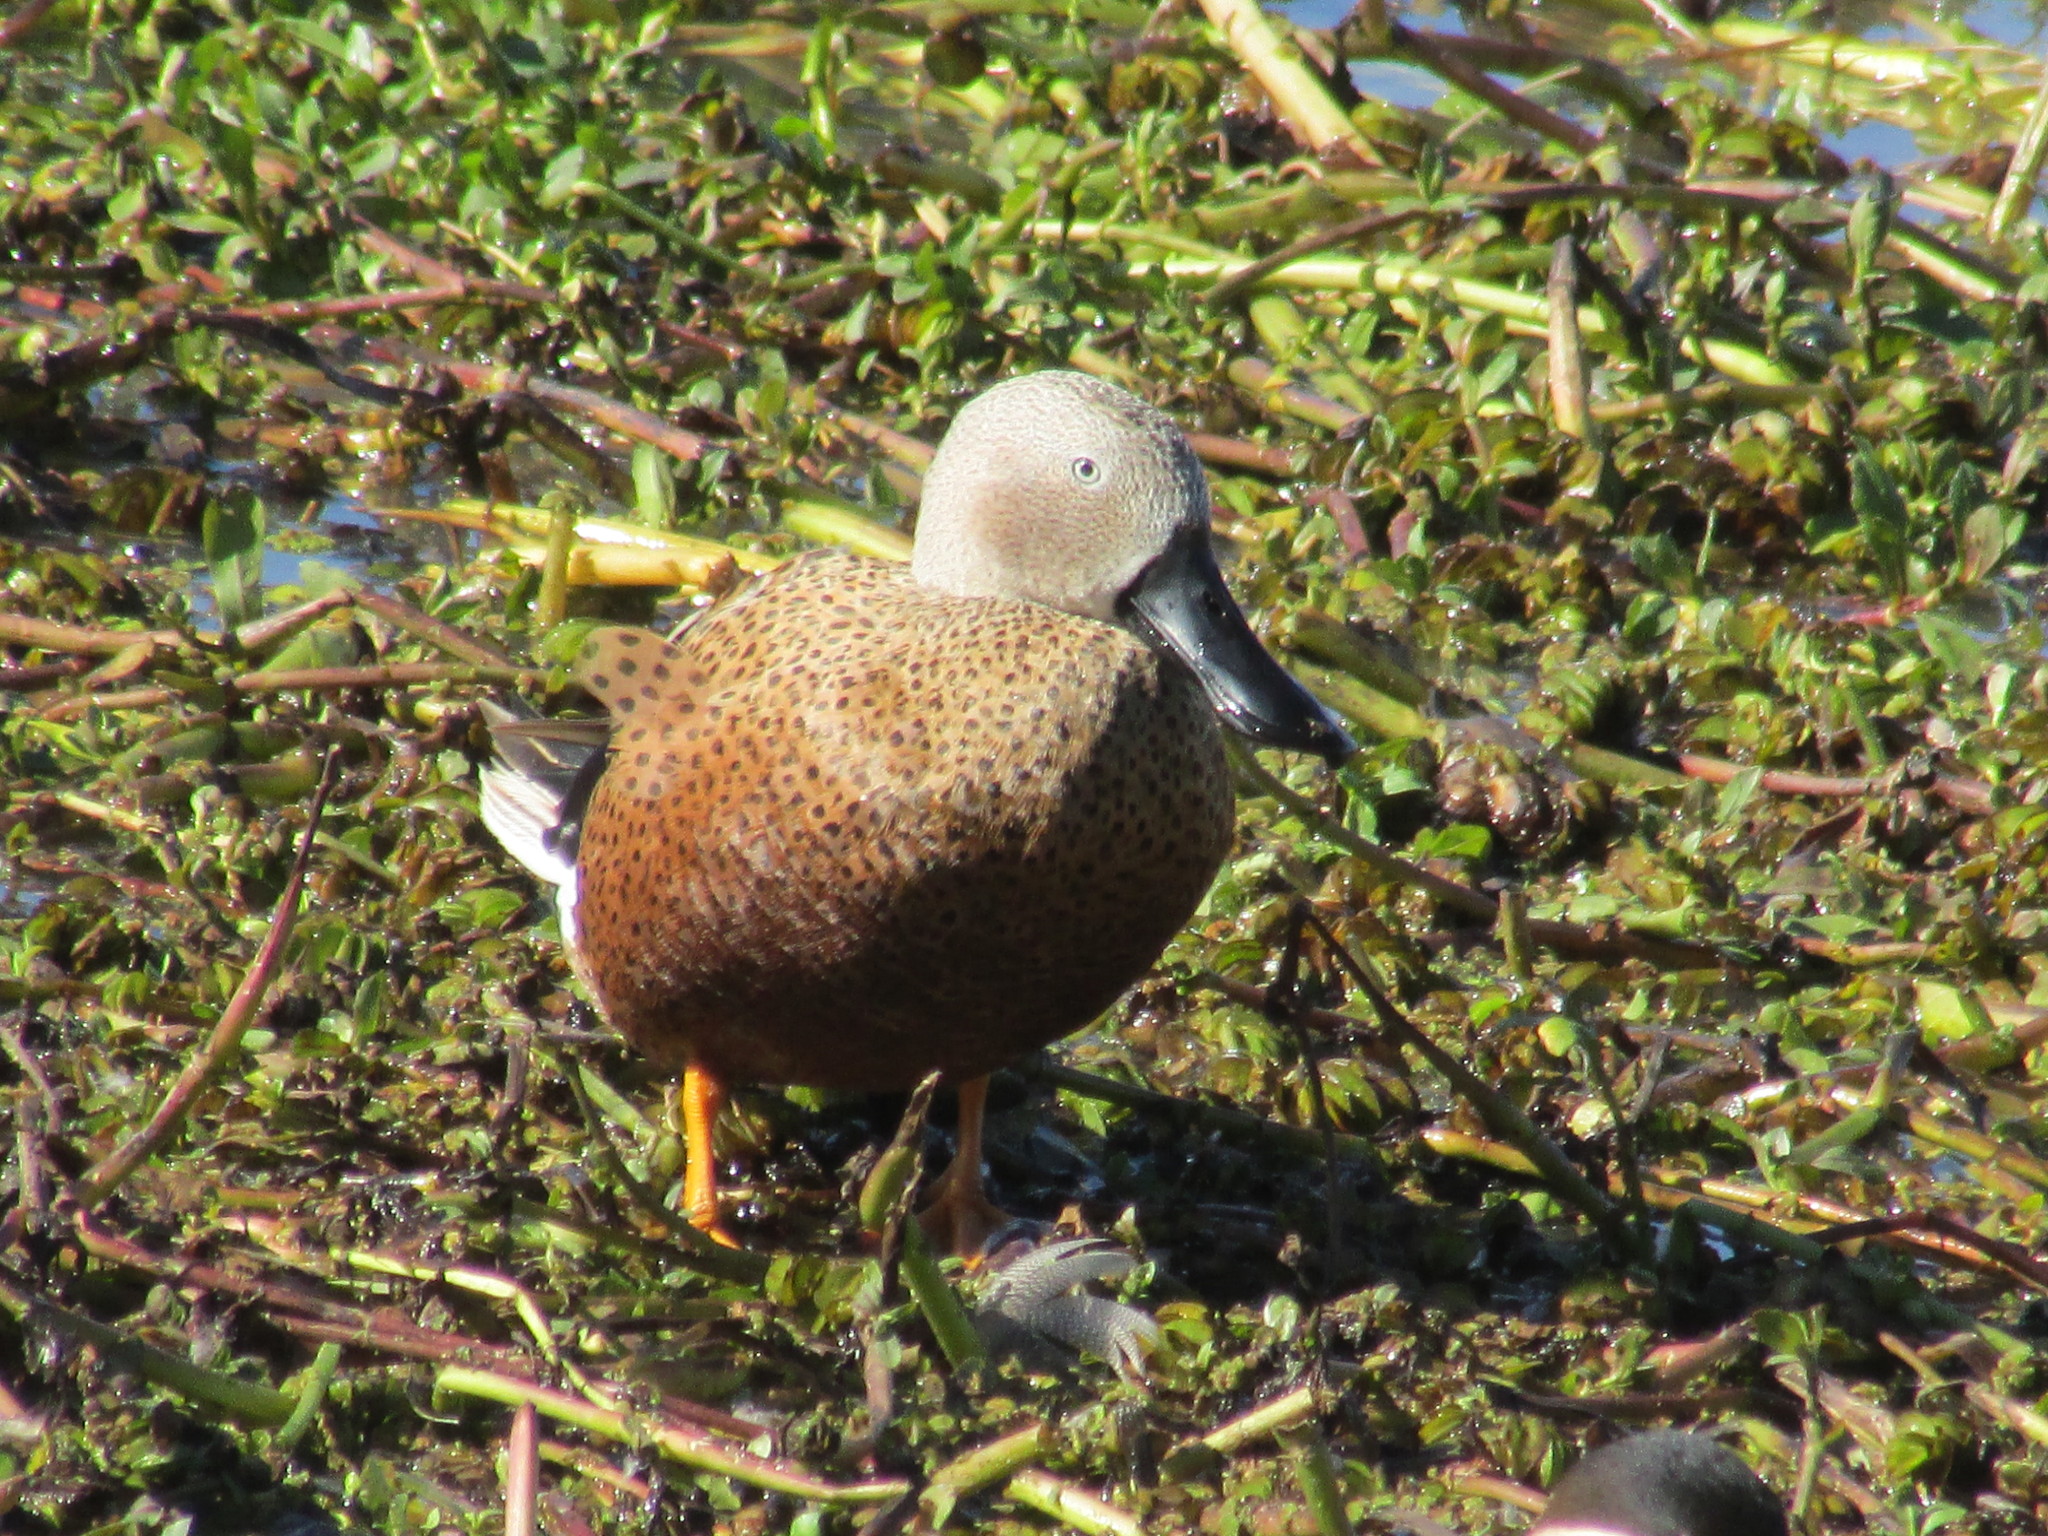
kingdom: Animalia
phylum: Chordata
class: Aves
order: Anseriformes
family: Anatidae
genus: Spatula
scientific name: Spatula platalea
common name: Red shoveler
